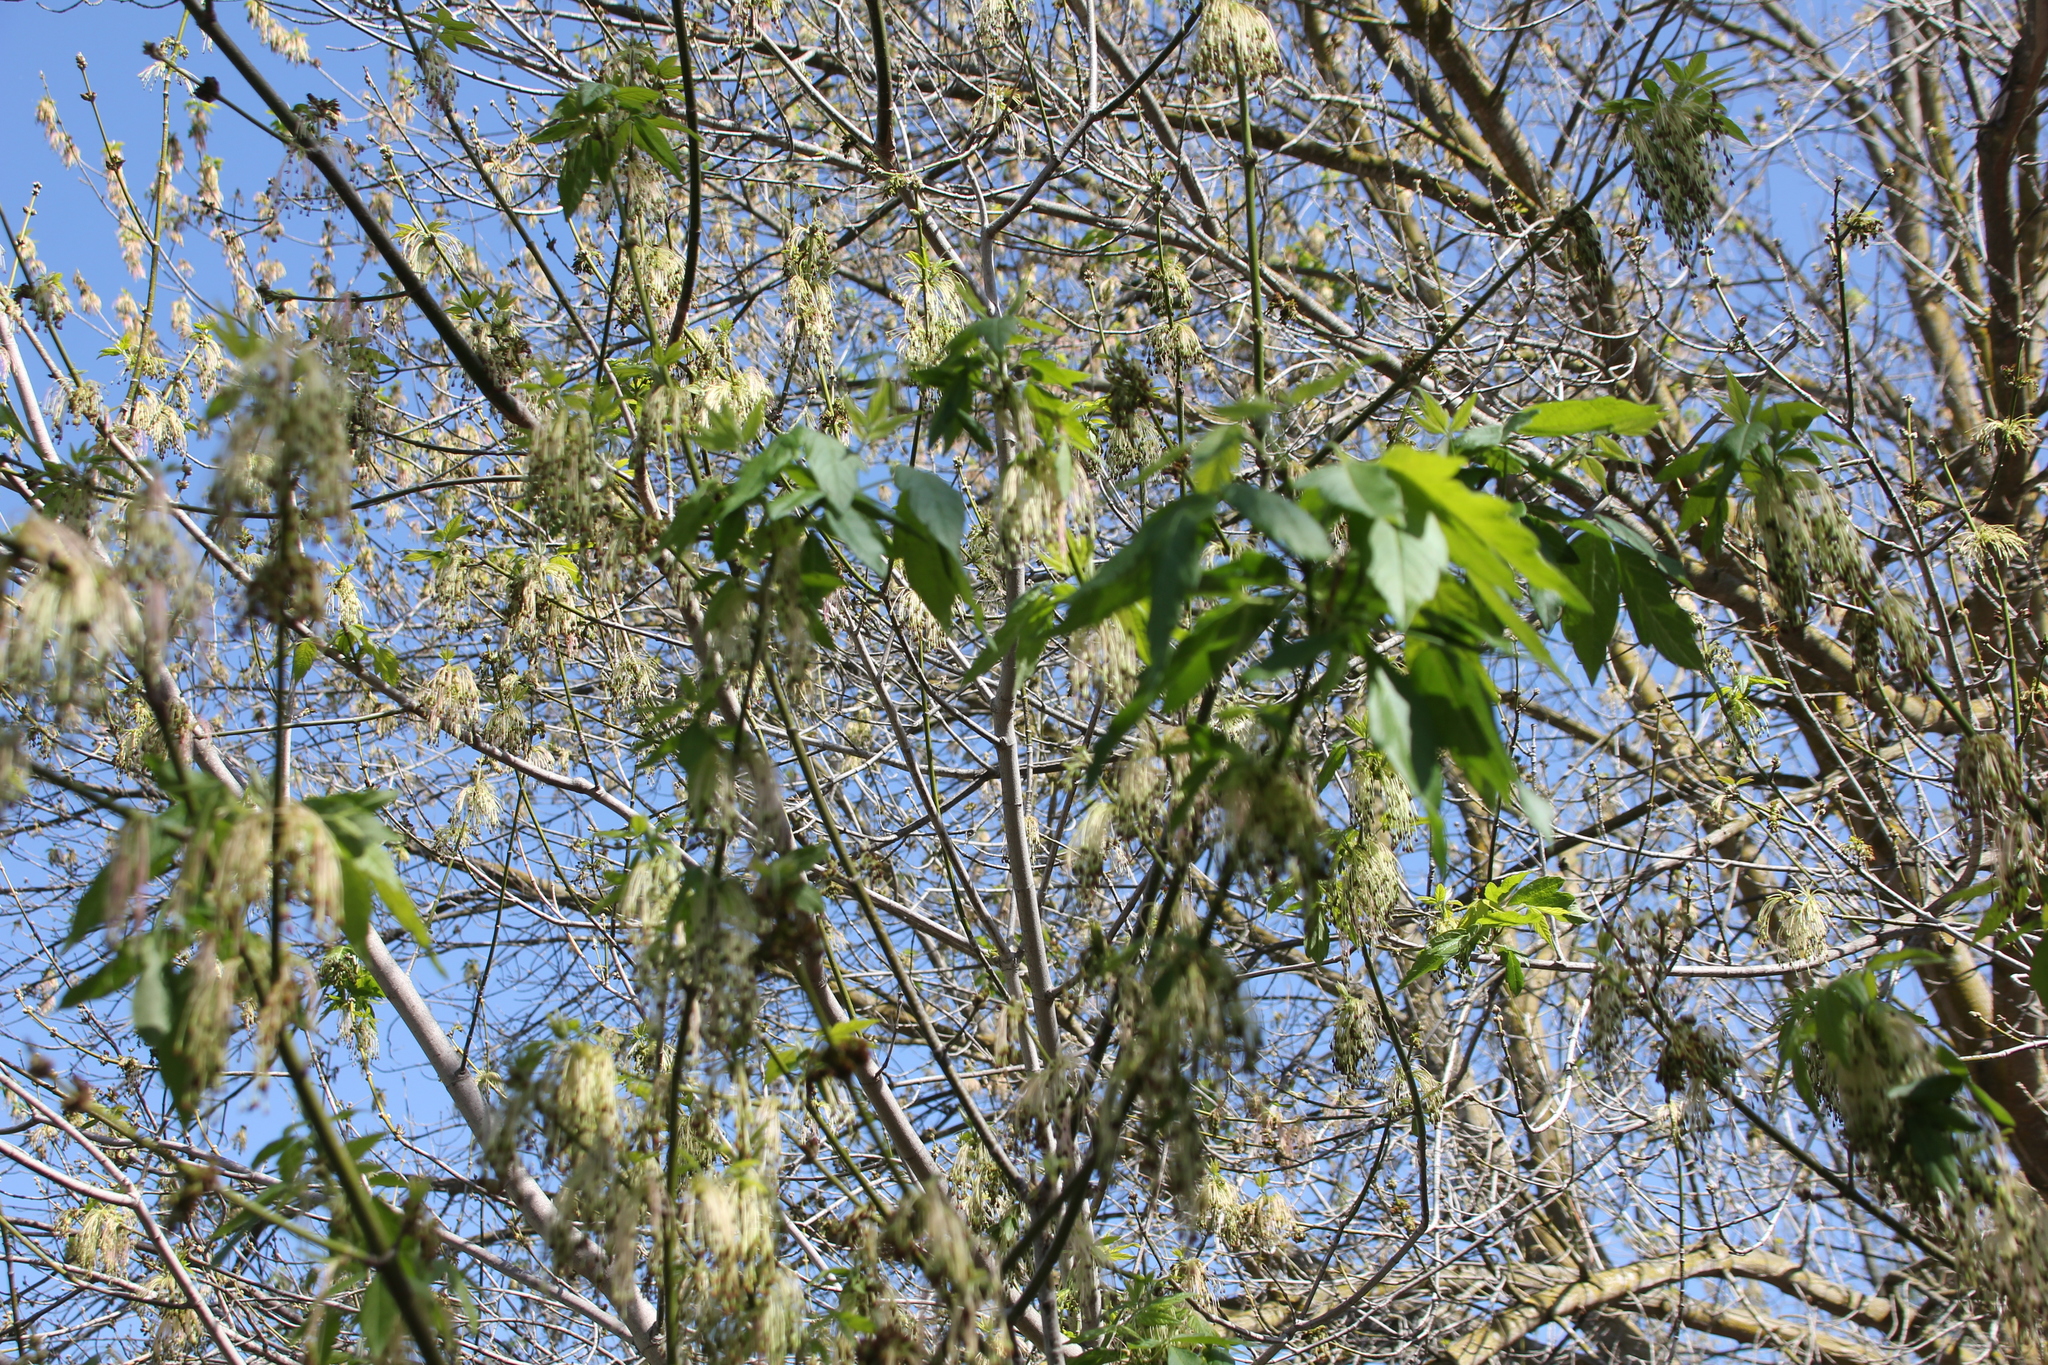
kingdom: Plantae
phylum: Tracheophyta
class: Magnoliopsida
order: Sapindales
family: Sapindaceae
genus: Acer
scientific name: Acer negundo
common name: Ashleaf maple
